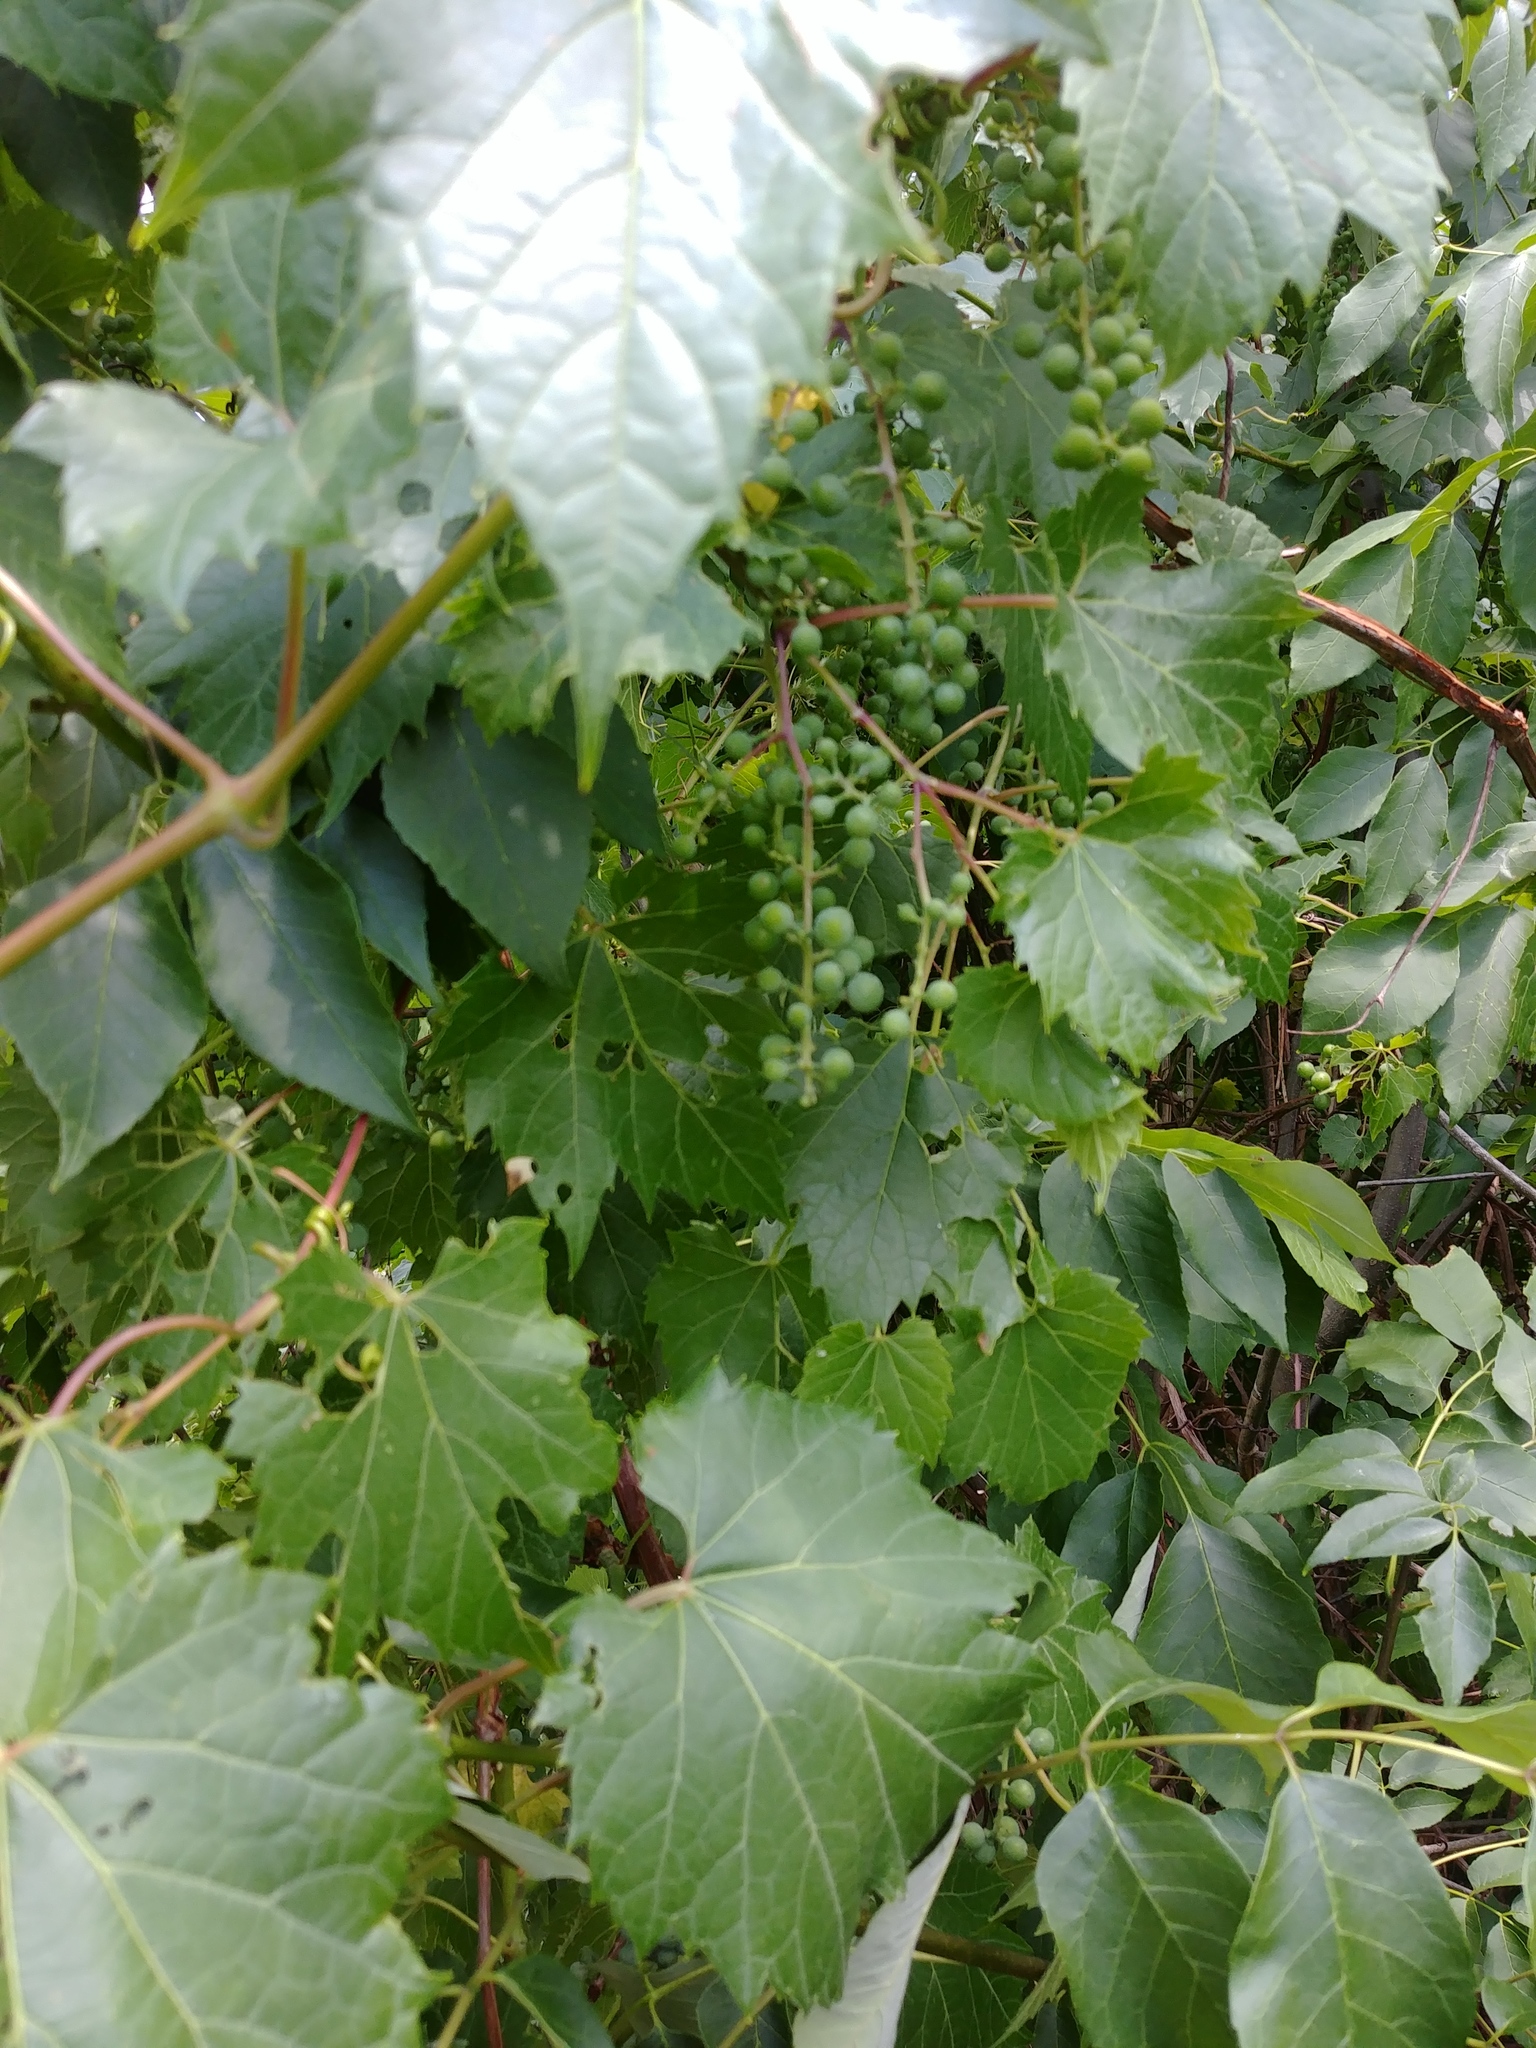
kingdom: Plantae
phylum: Tracheophyta
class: Magnoliopsida
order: Vitales
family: Vitaceae
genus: Vitis
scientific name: Vitis riparia
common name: Frost grape
